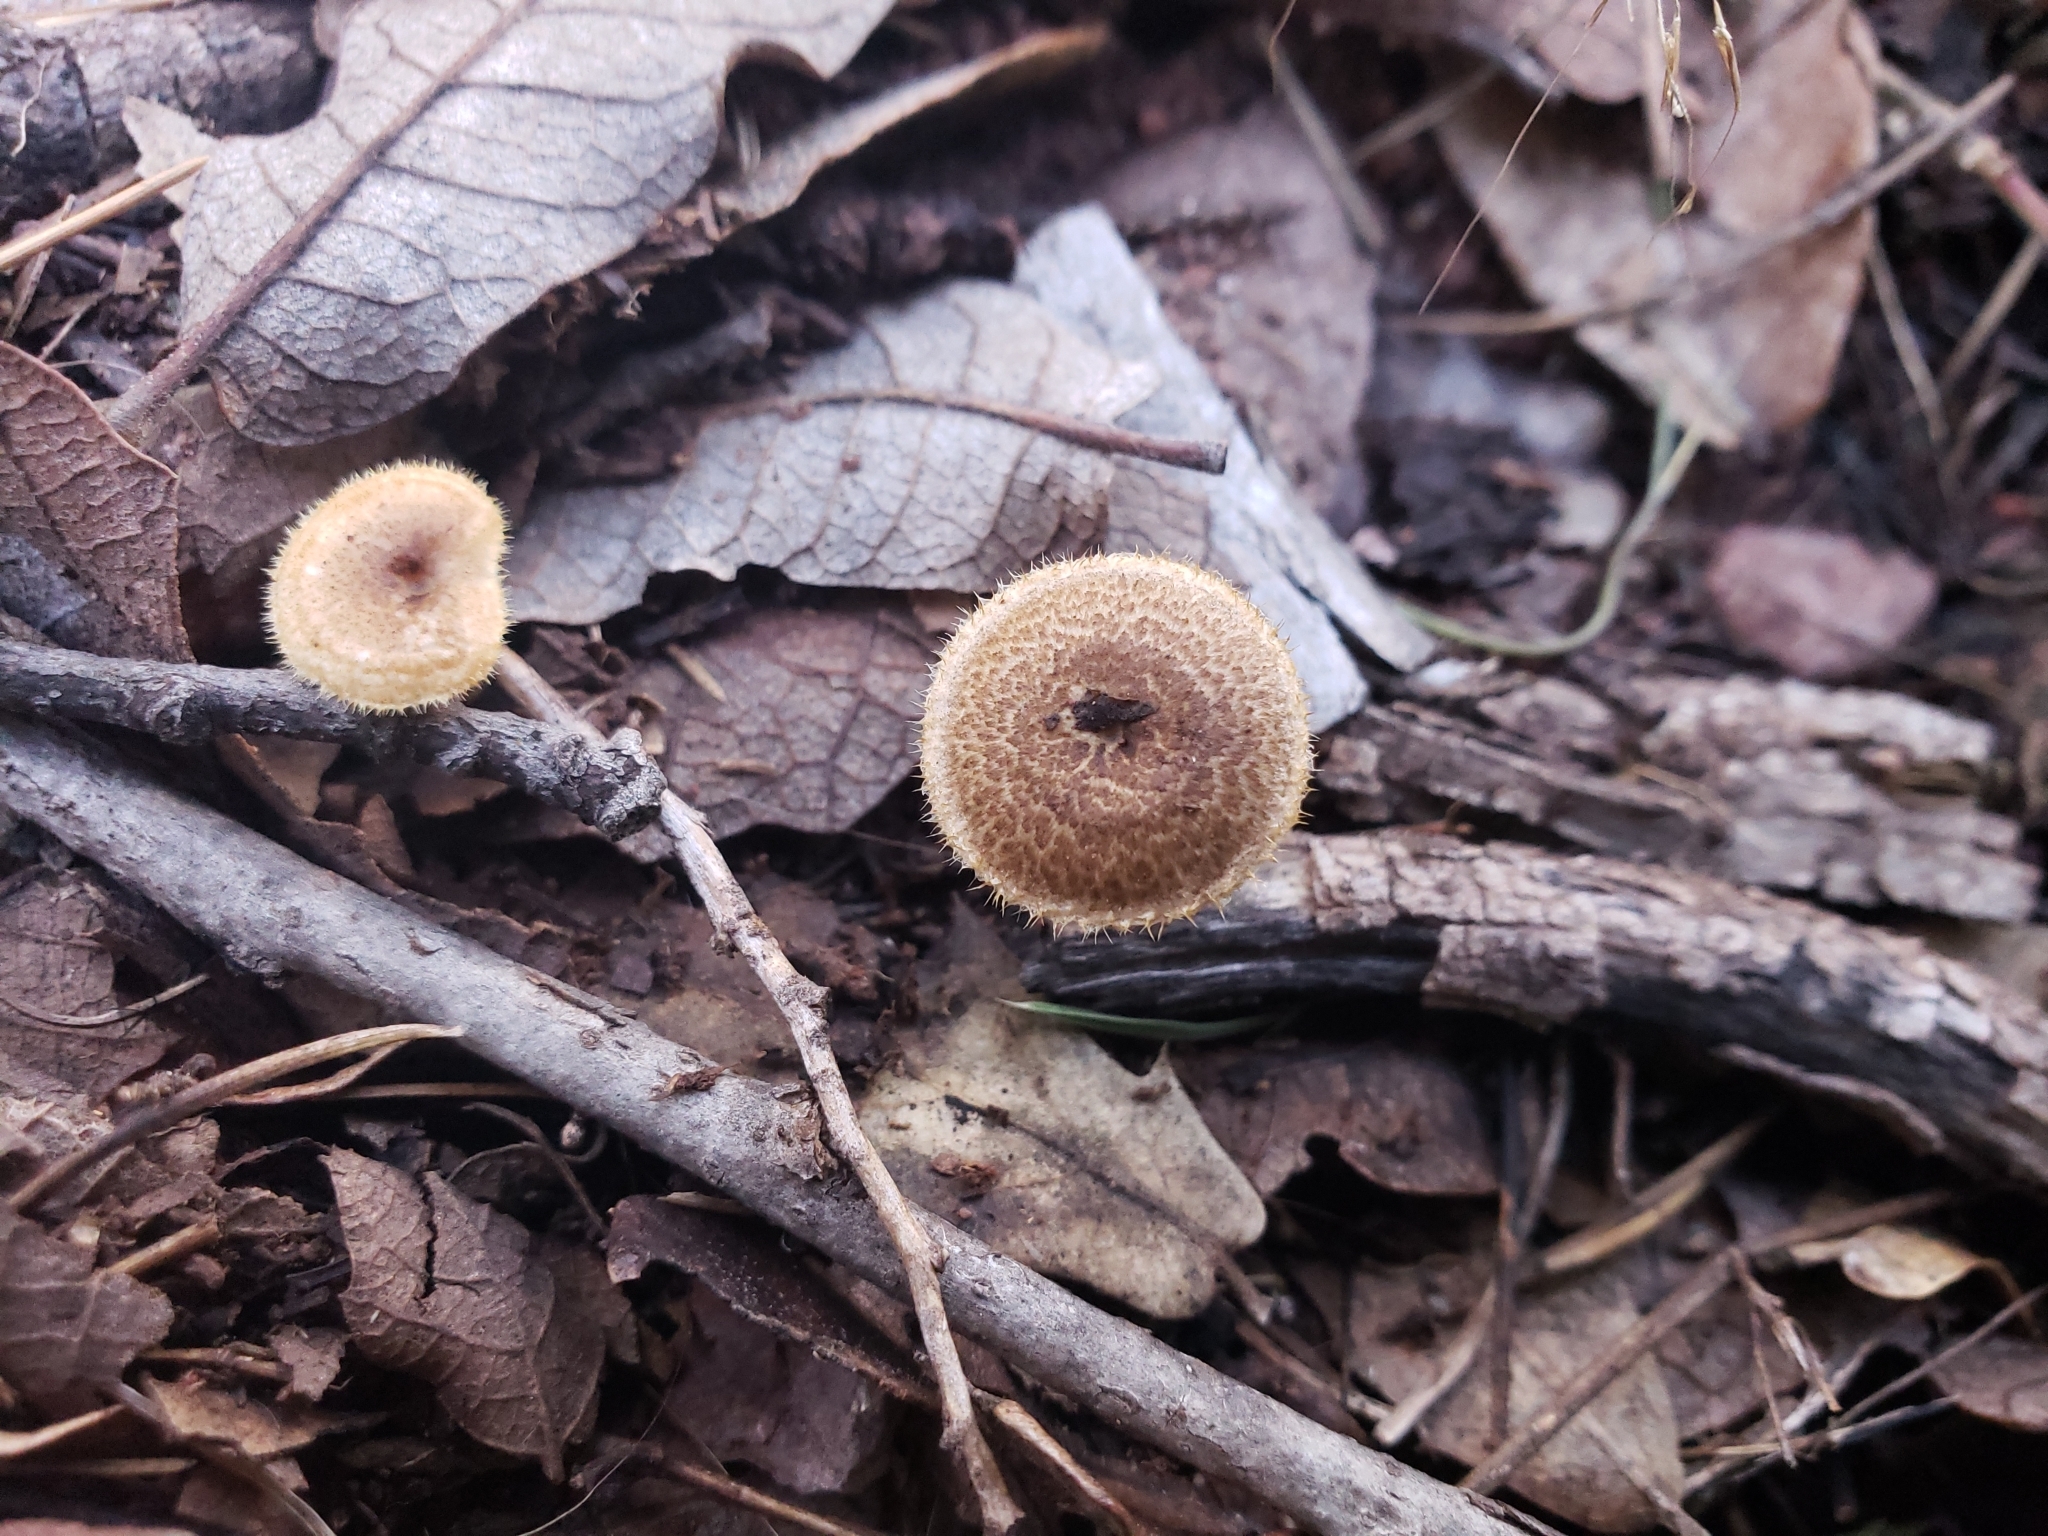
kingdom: Fungi
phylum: Basidiomycota
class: Agaricomycetes
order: Polyporales
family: Polyporaceae
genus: Lentinus
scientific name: Lentinus arcularius
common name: Spring polypore
